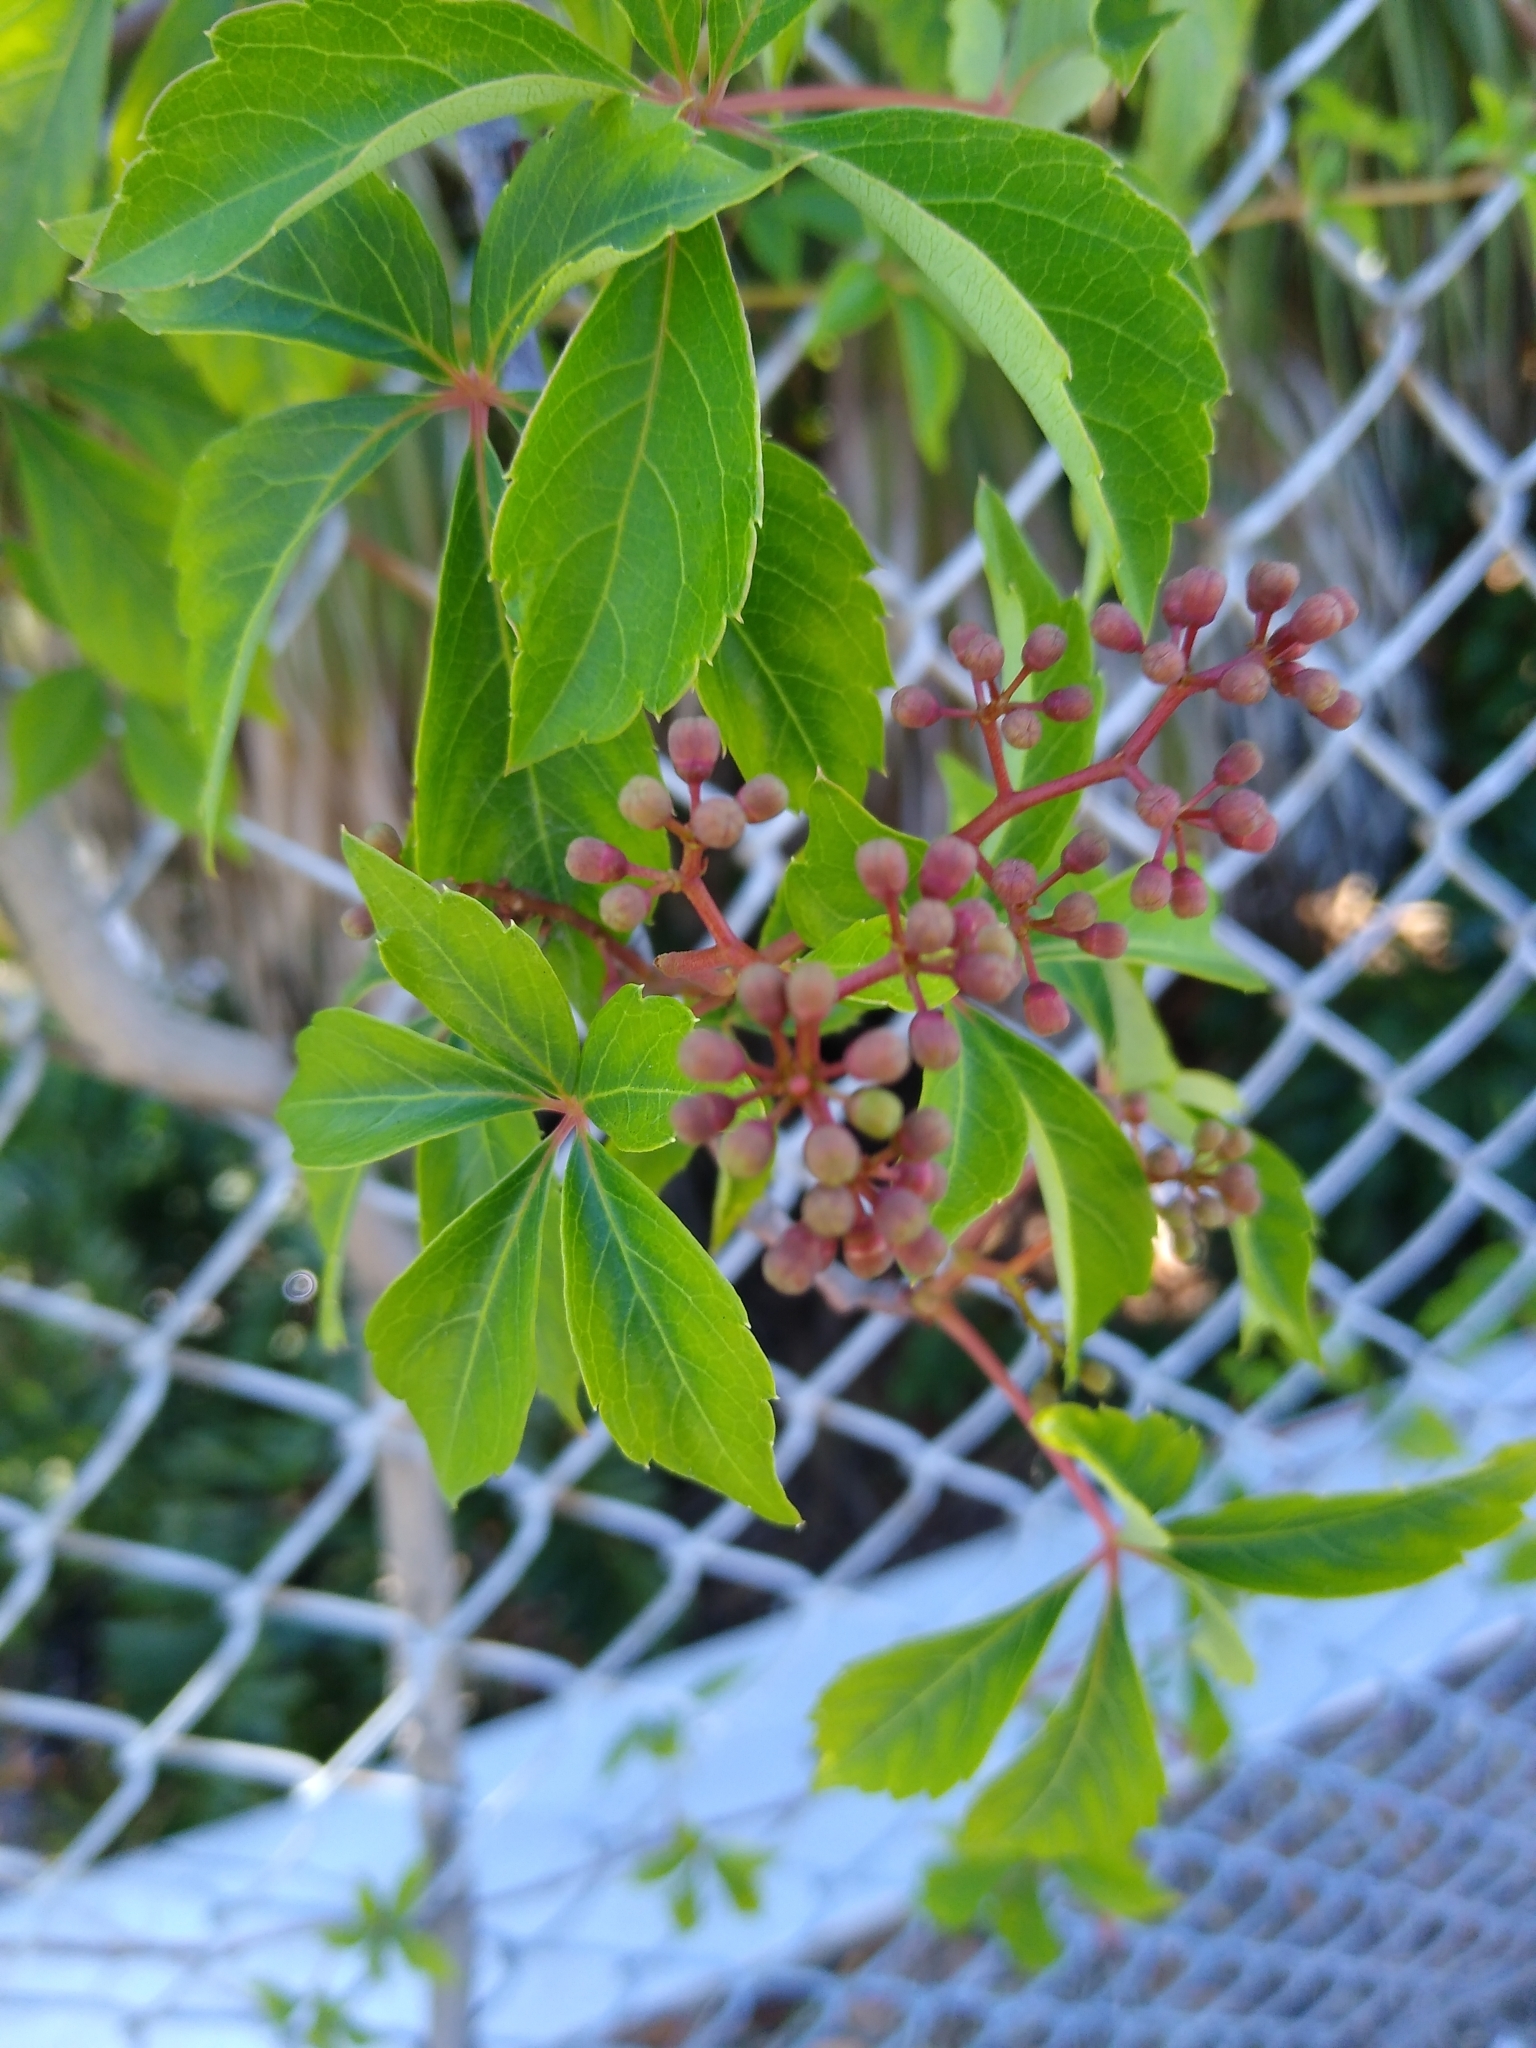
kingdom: Plantae
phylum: Tracheophyta
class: Magnoliopsida
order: Vitales
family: Vitaceae
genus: Parthenocissus
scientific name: Parthenocissus quinquefolia
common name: Virginia-creeper
